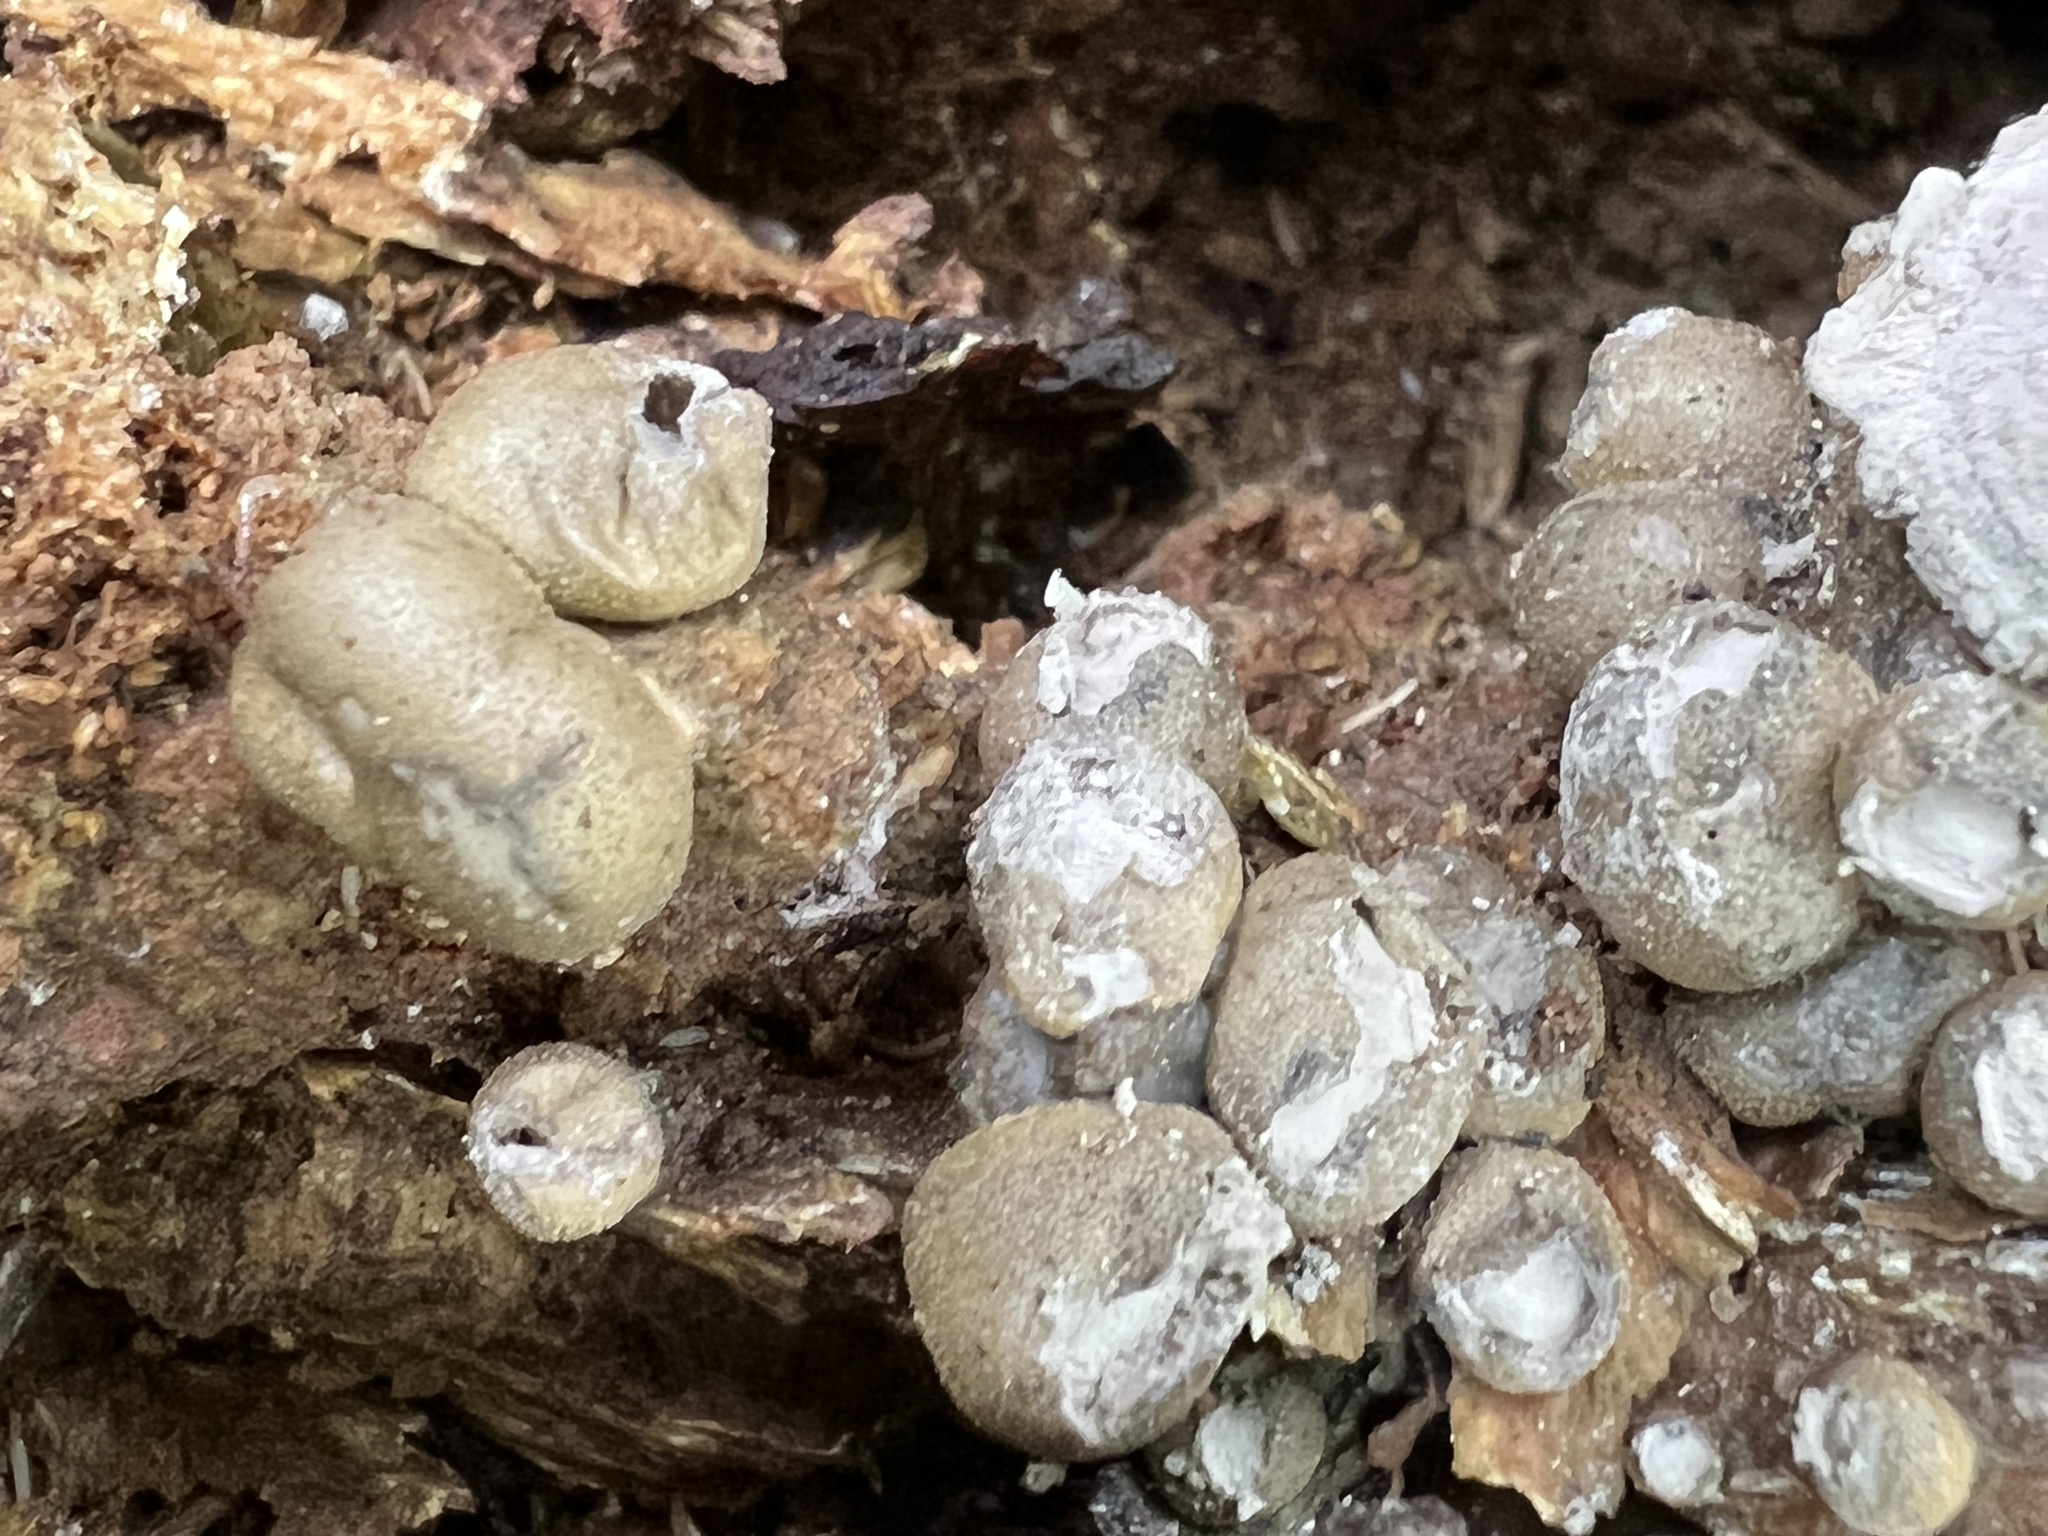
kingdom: Protozoa
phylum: Mycetozoa
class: Myxomycetes
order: Cribrariales
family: Tubiferaceae
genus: Lycogala
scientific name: Lycogala epidendrum
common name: Wolf's milk
